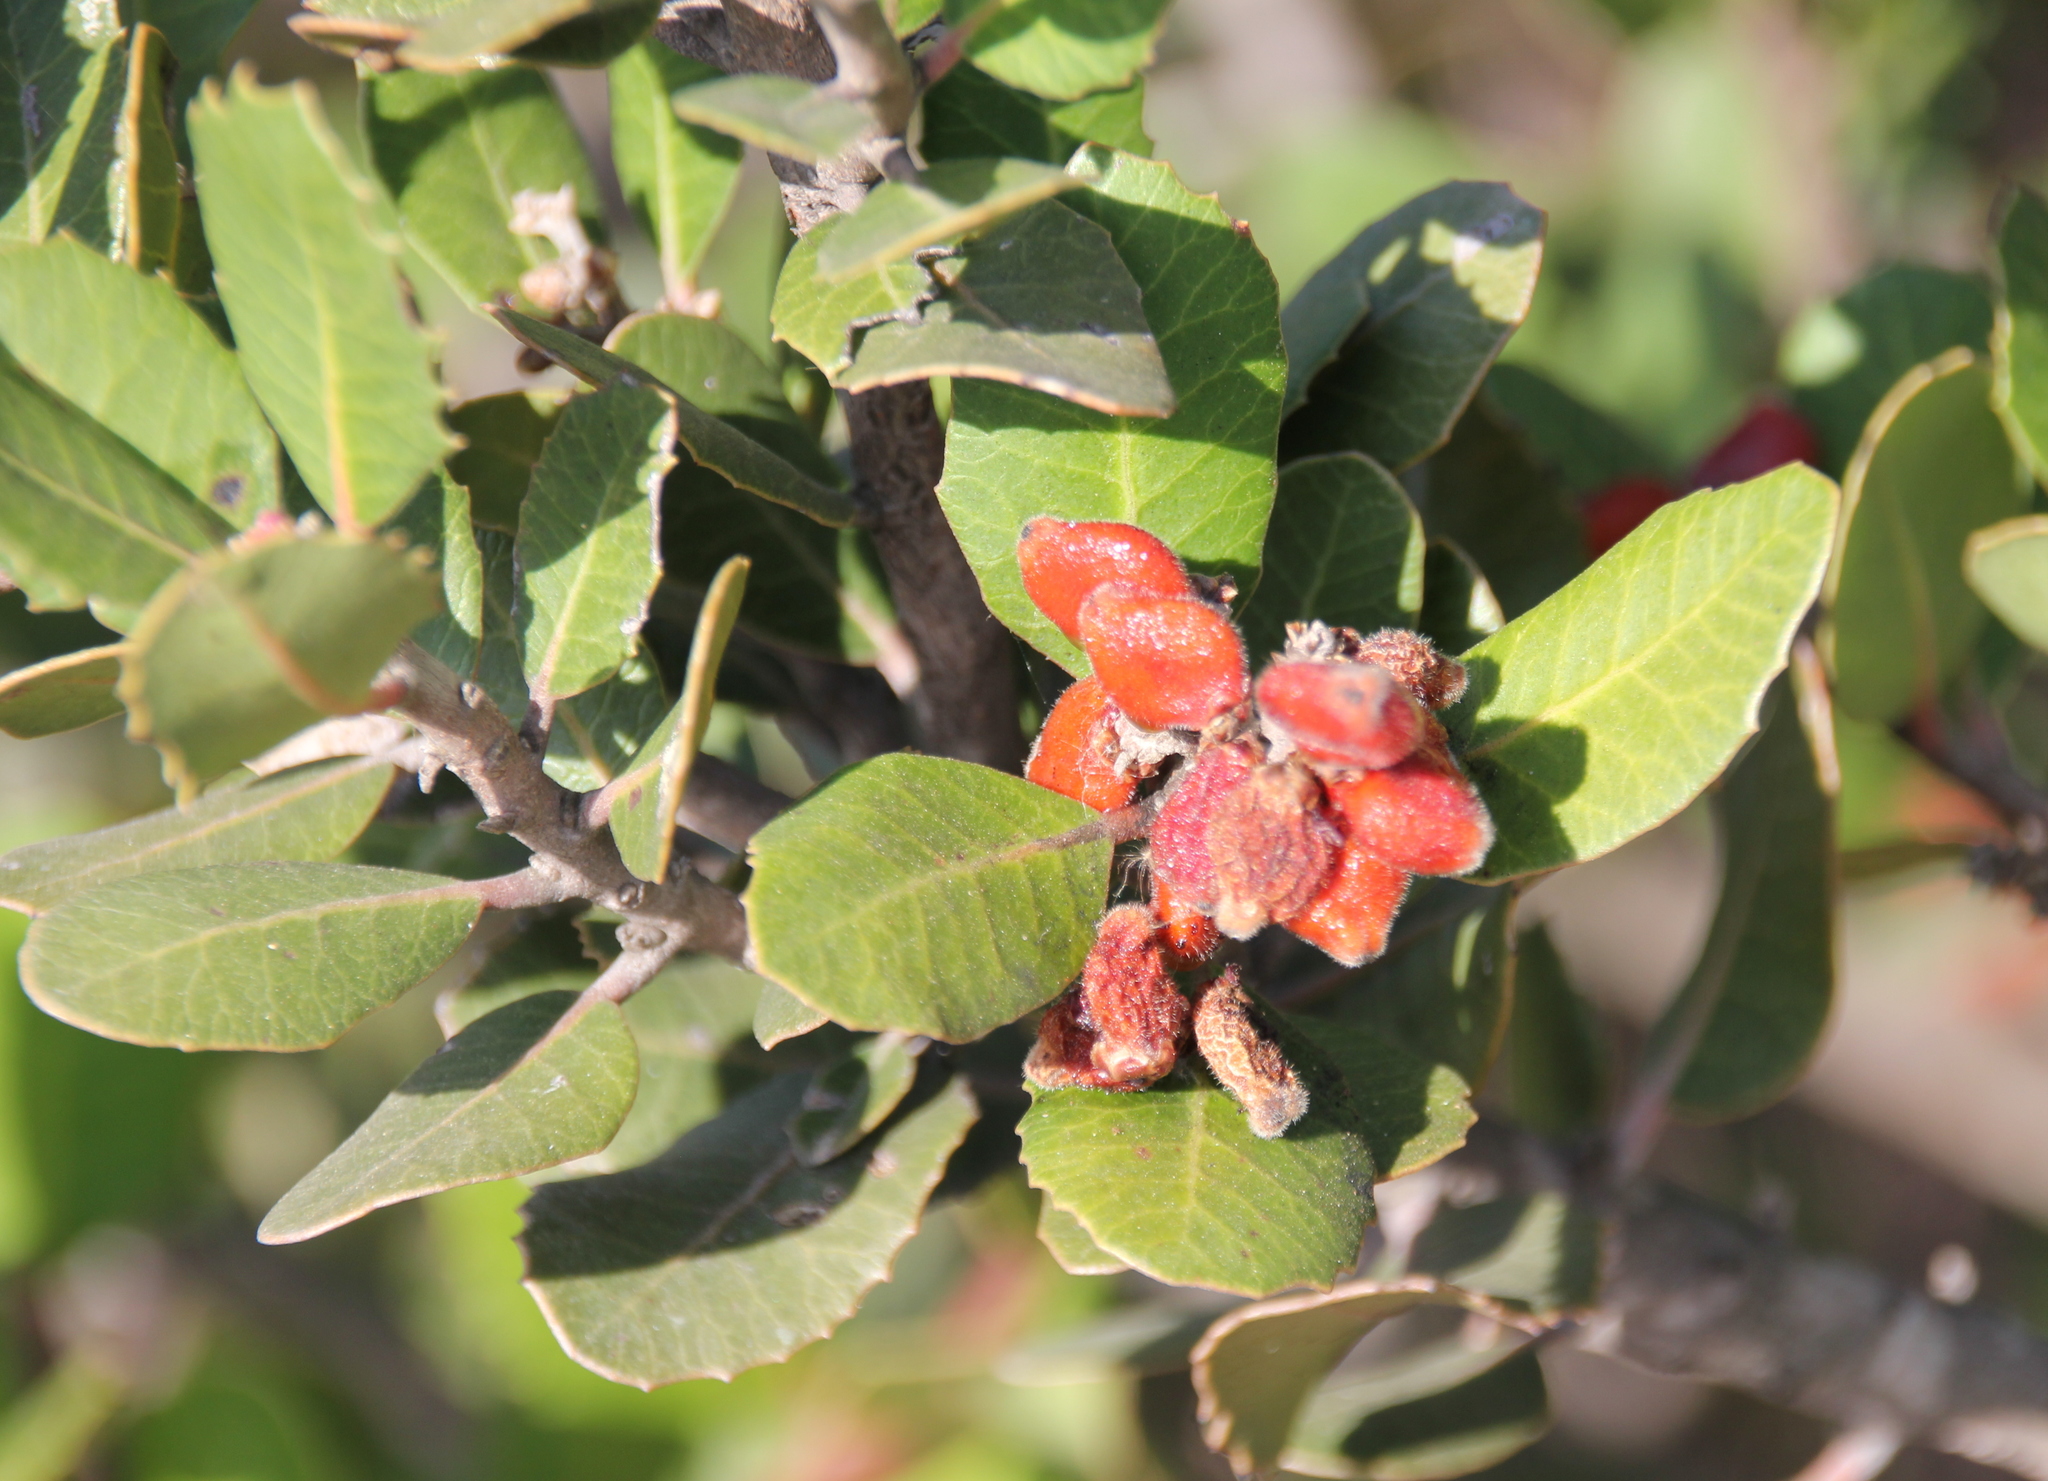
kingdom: Plantae
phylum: Tracheophyta
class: Magnoliopsida
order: Sapindales
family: Anacardiaceae
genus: Rhus
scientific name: Rhus integrifolia
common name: Lemonade sumac
